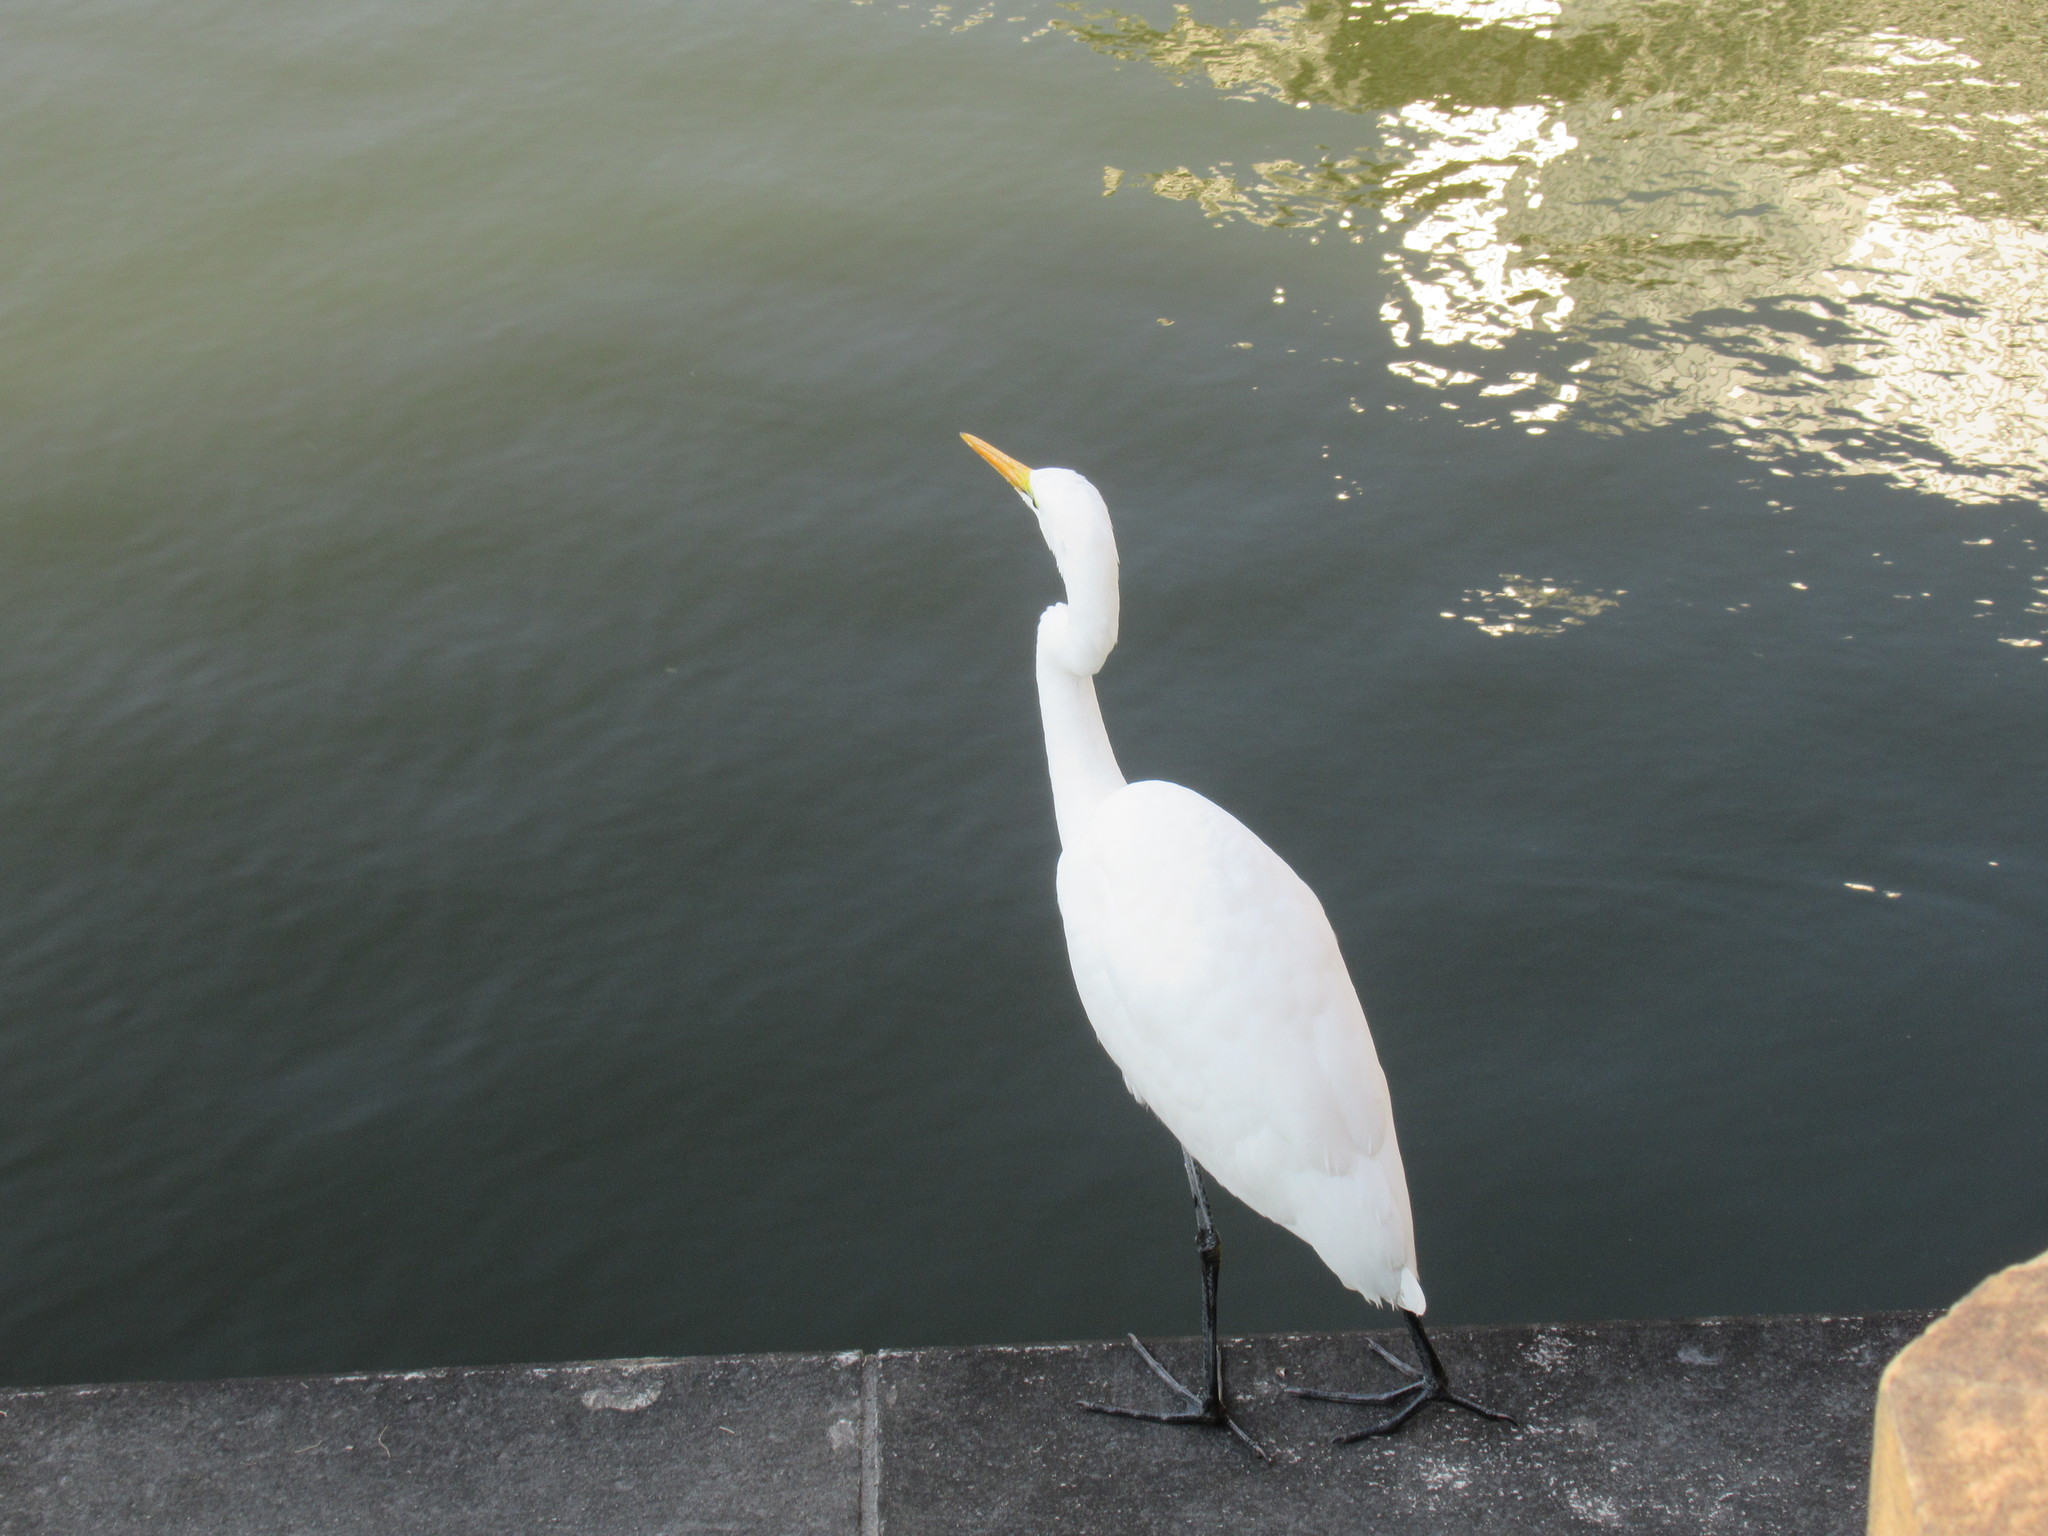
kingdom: Animalia
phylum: Chordata
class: Aves
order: Pelecaniformes
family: Ardeidae
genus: Ardea
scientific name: Ardea alba
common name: Great egret
